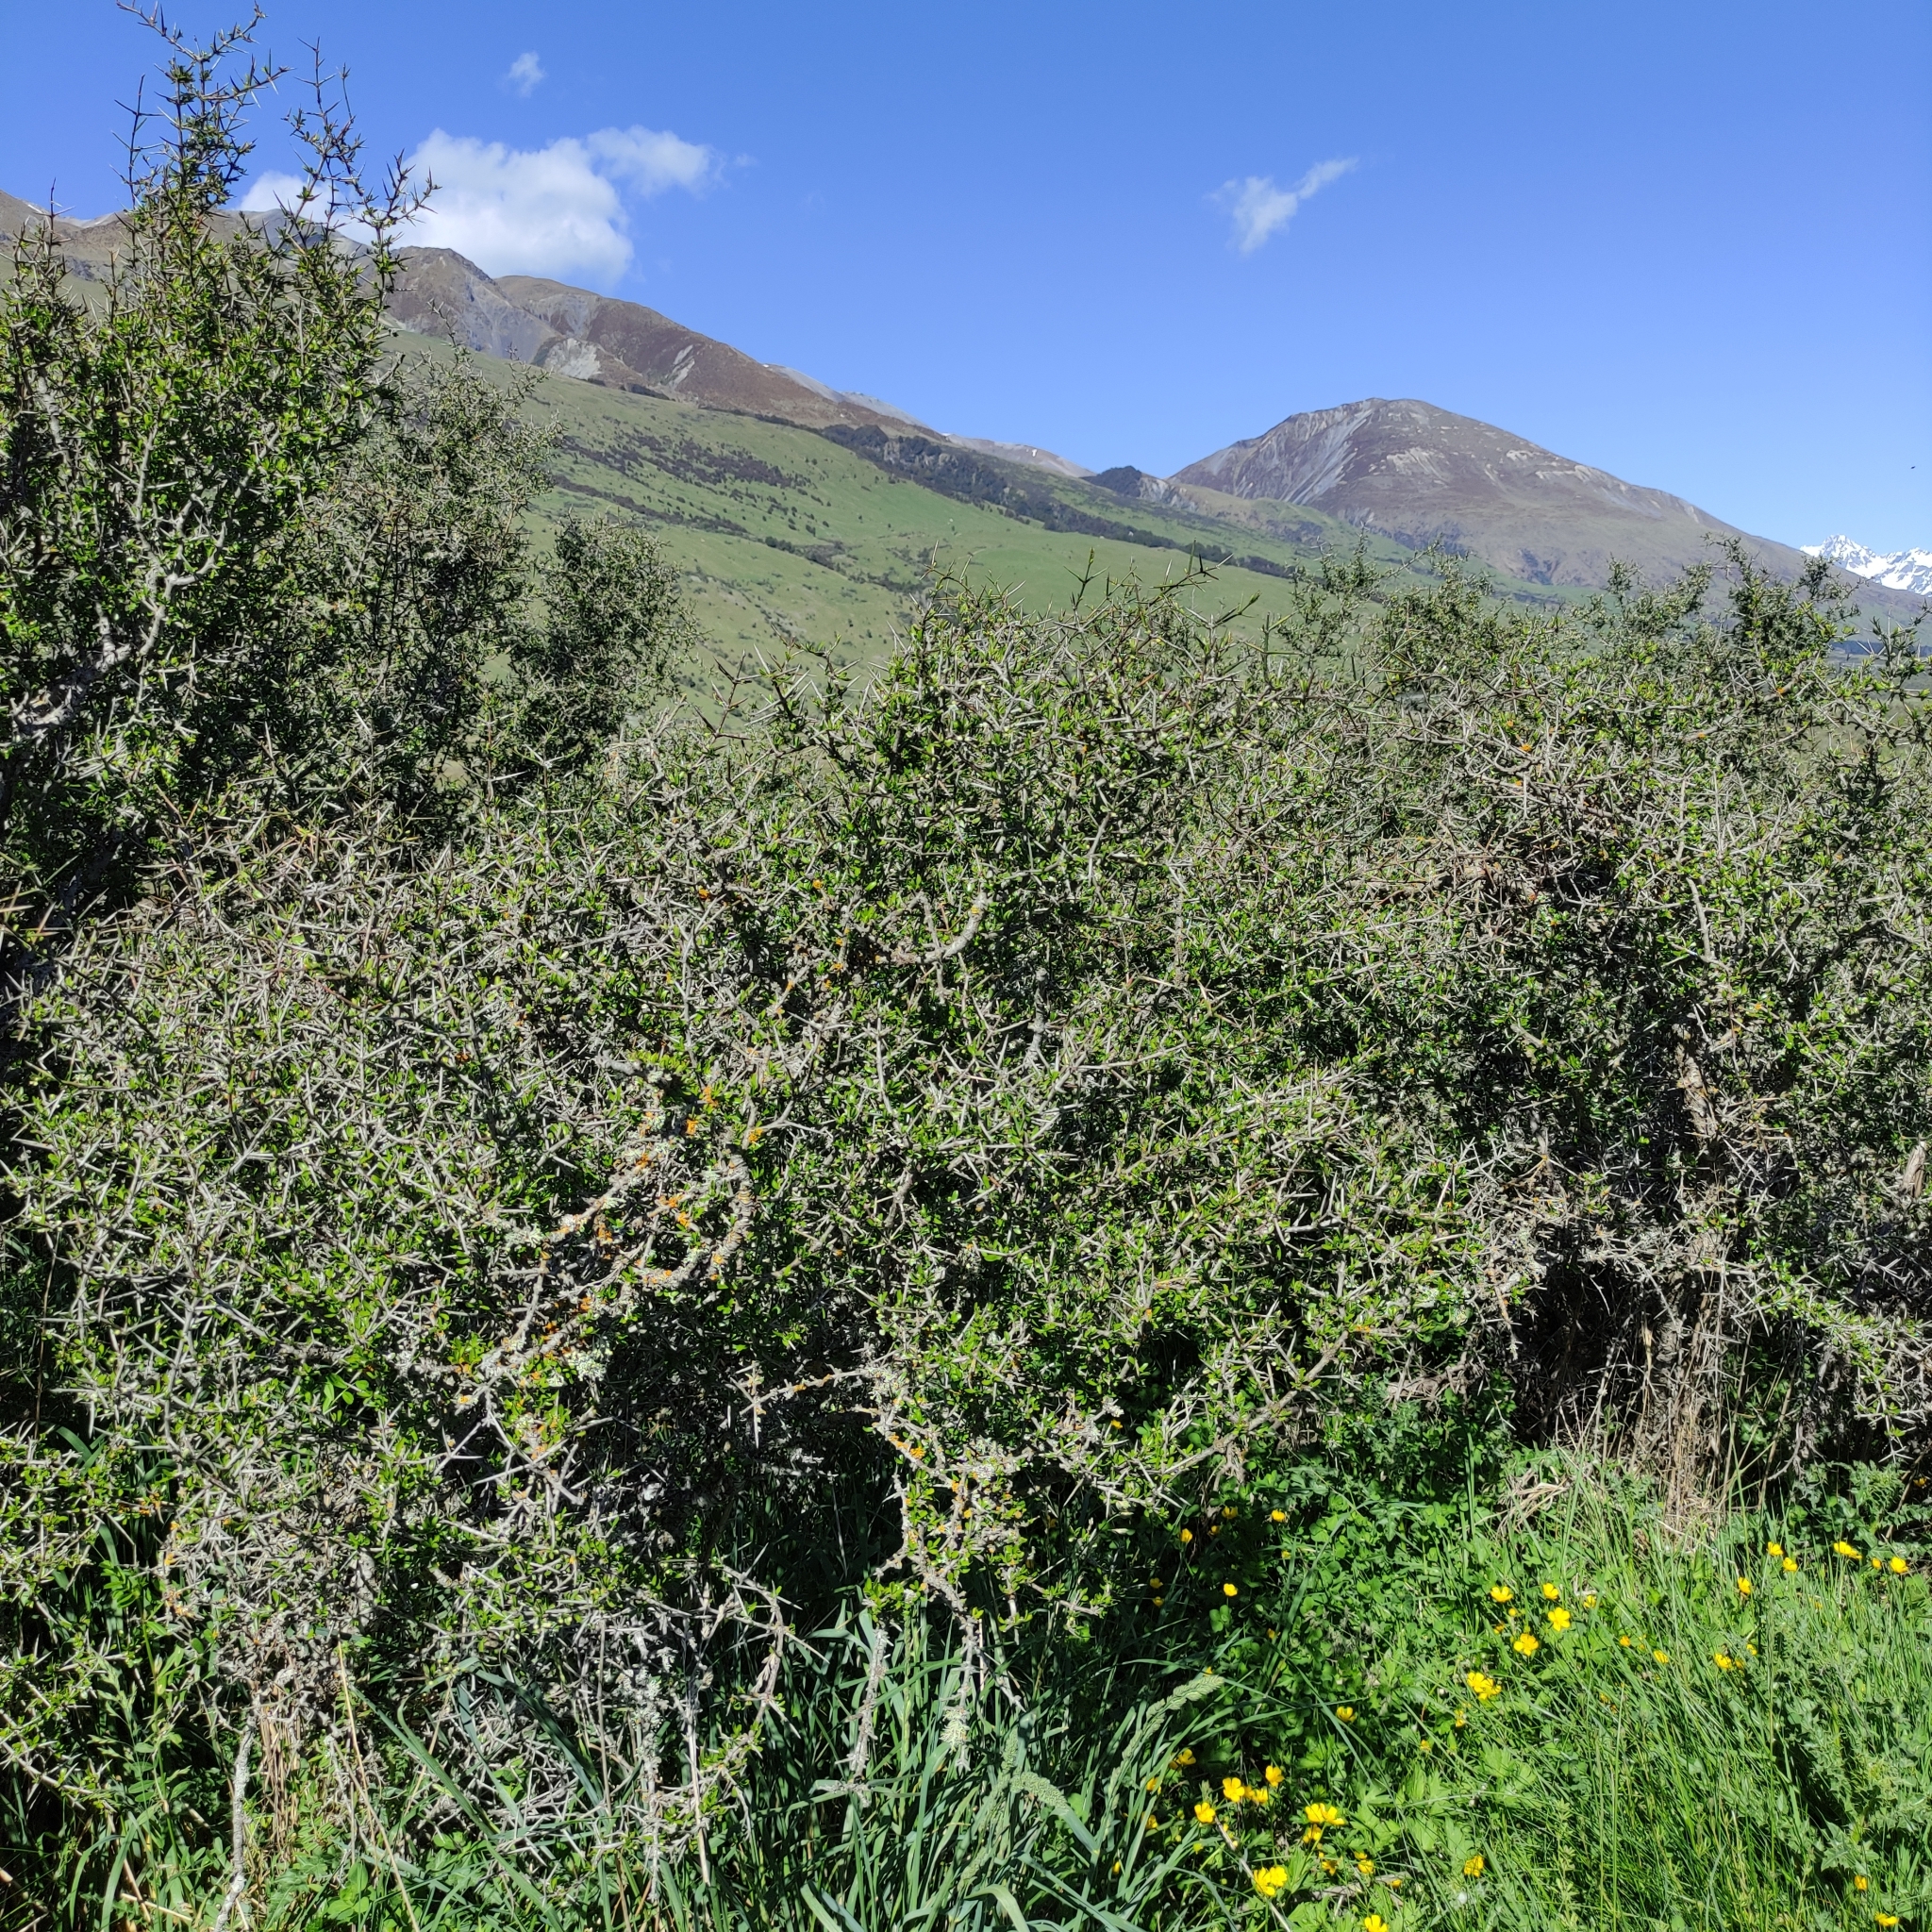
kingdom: Plantae
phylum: Tracheophyta
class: Magnoliopsida
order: Rosales
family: Rhamnaceae
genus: Discaria
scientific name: Discaria toumatou
